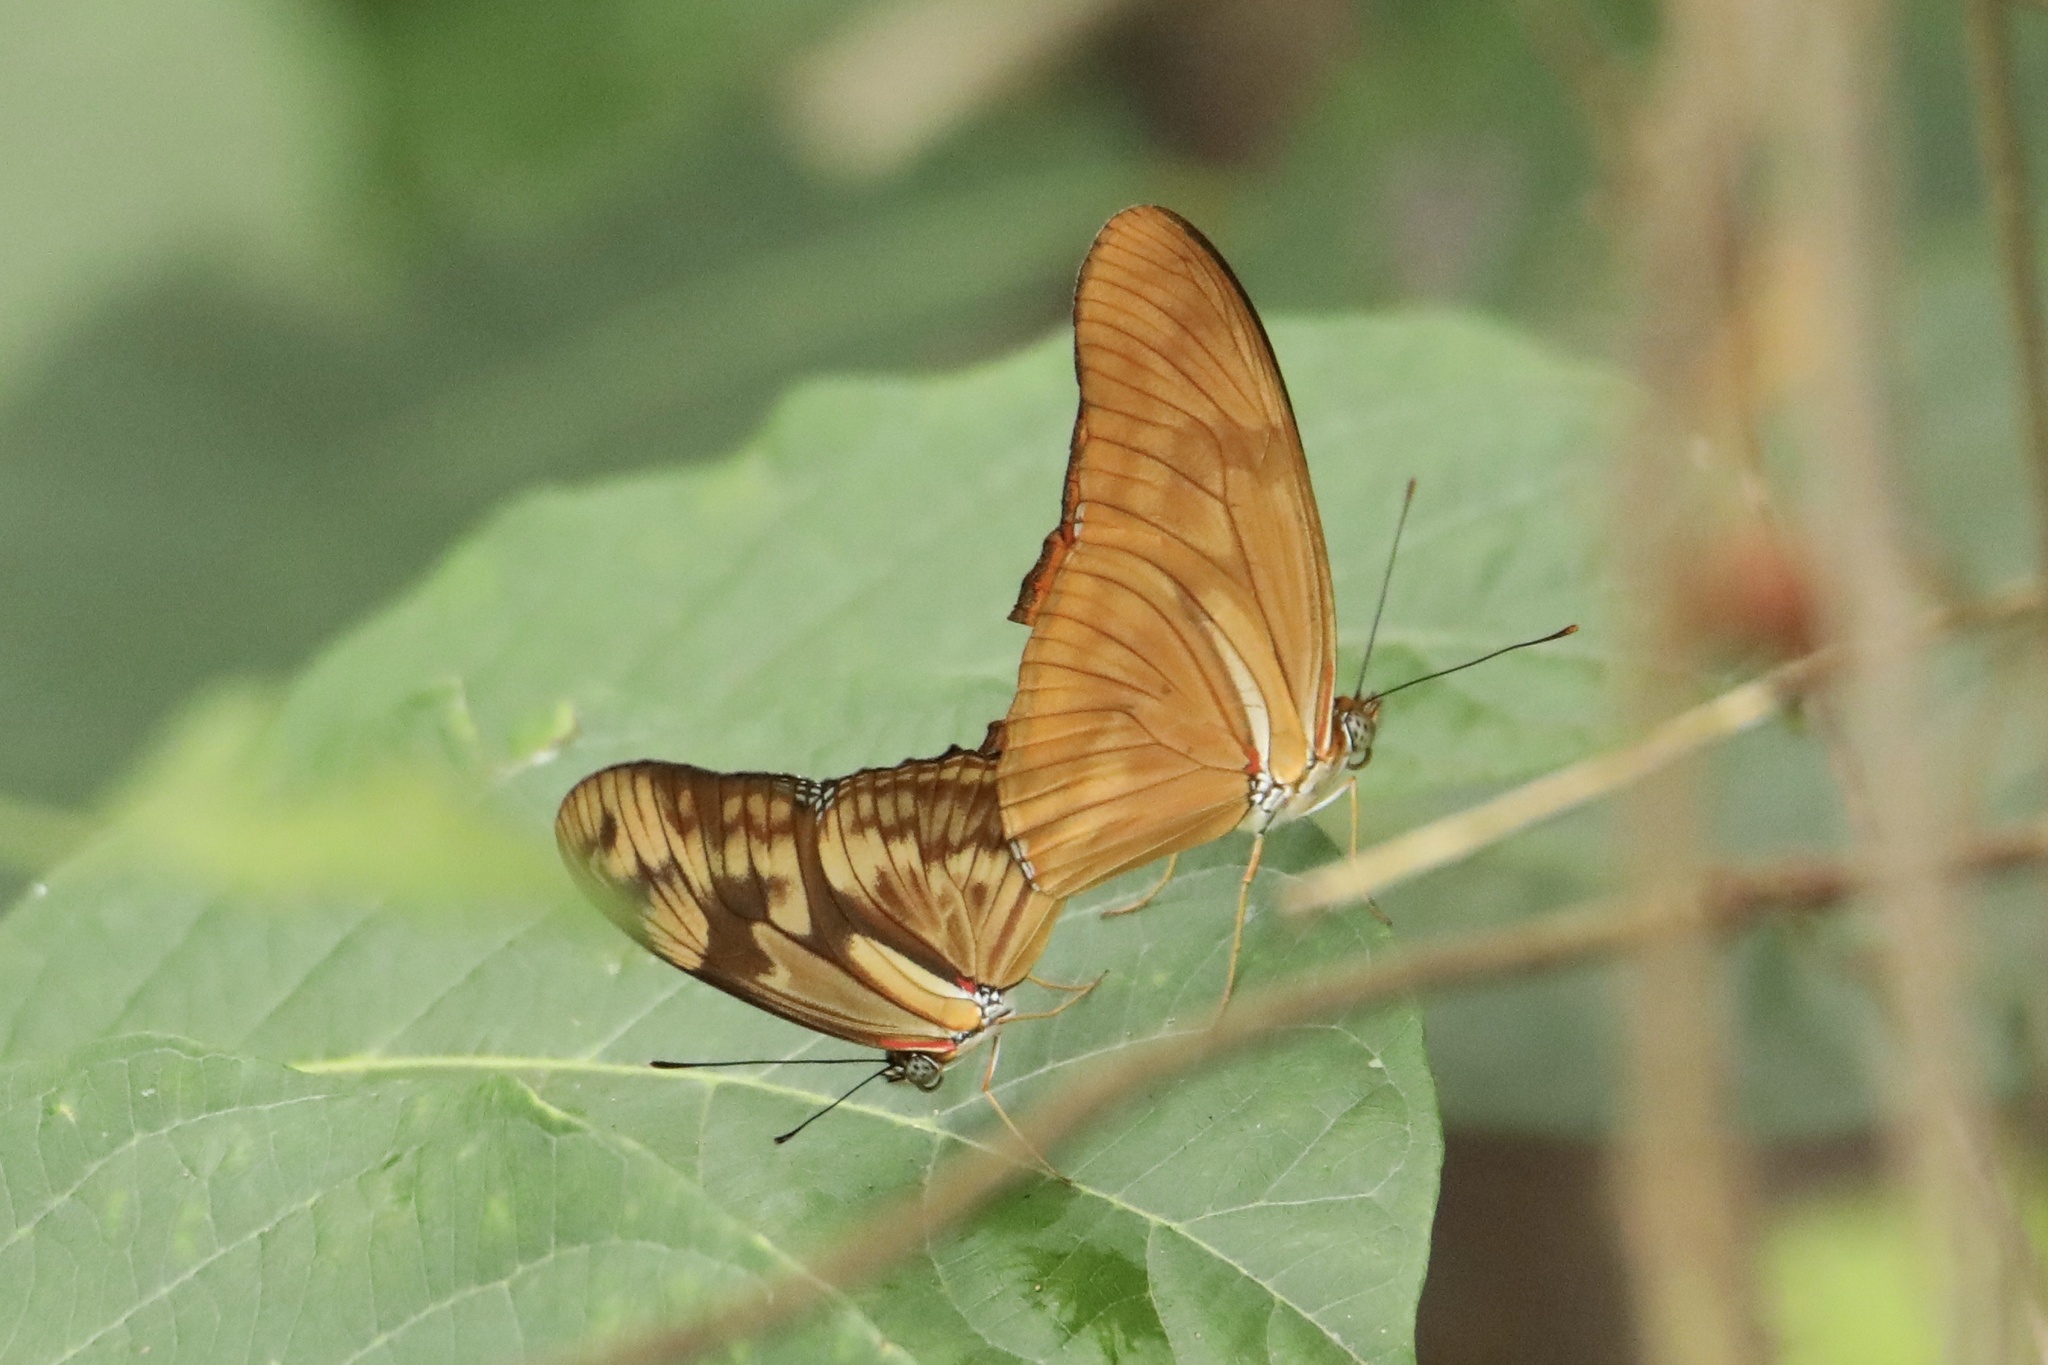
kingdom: Animalia
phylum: Arthropoda
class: Insecta
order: Lepidoptera
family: Nymphalidae
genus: Dryas
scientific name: Dryas iulia
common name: Flambeau
